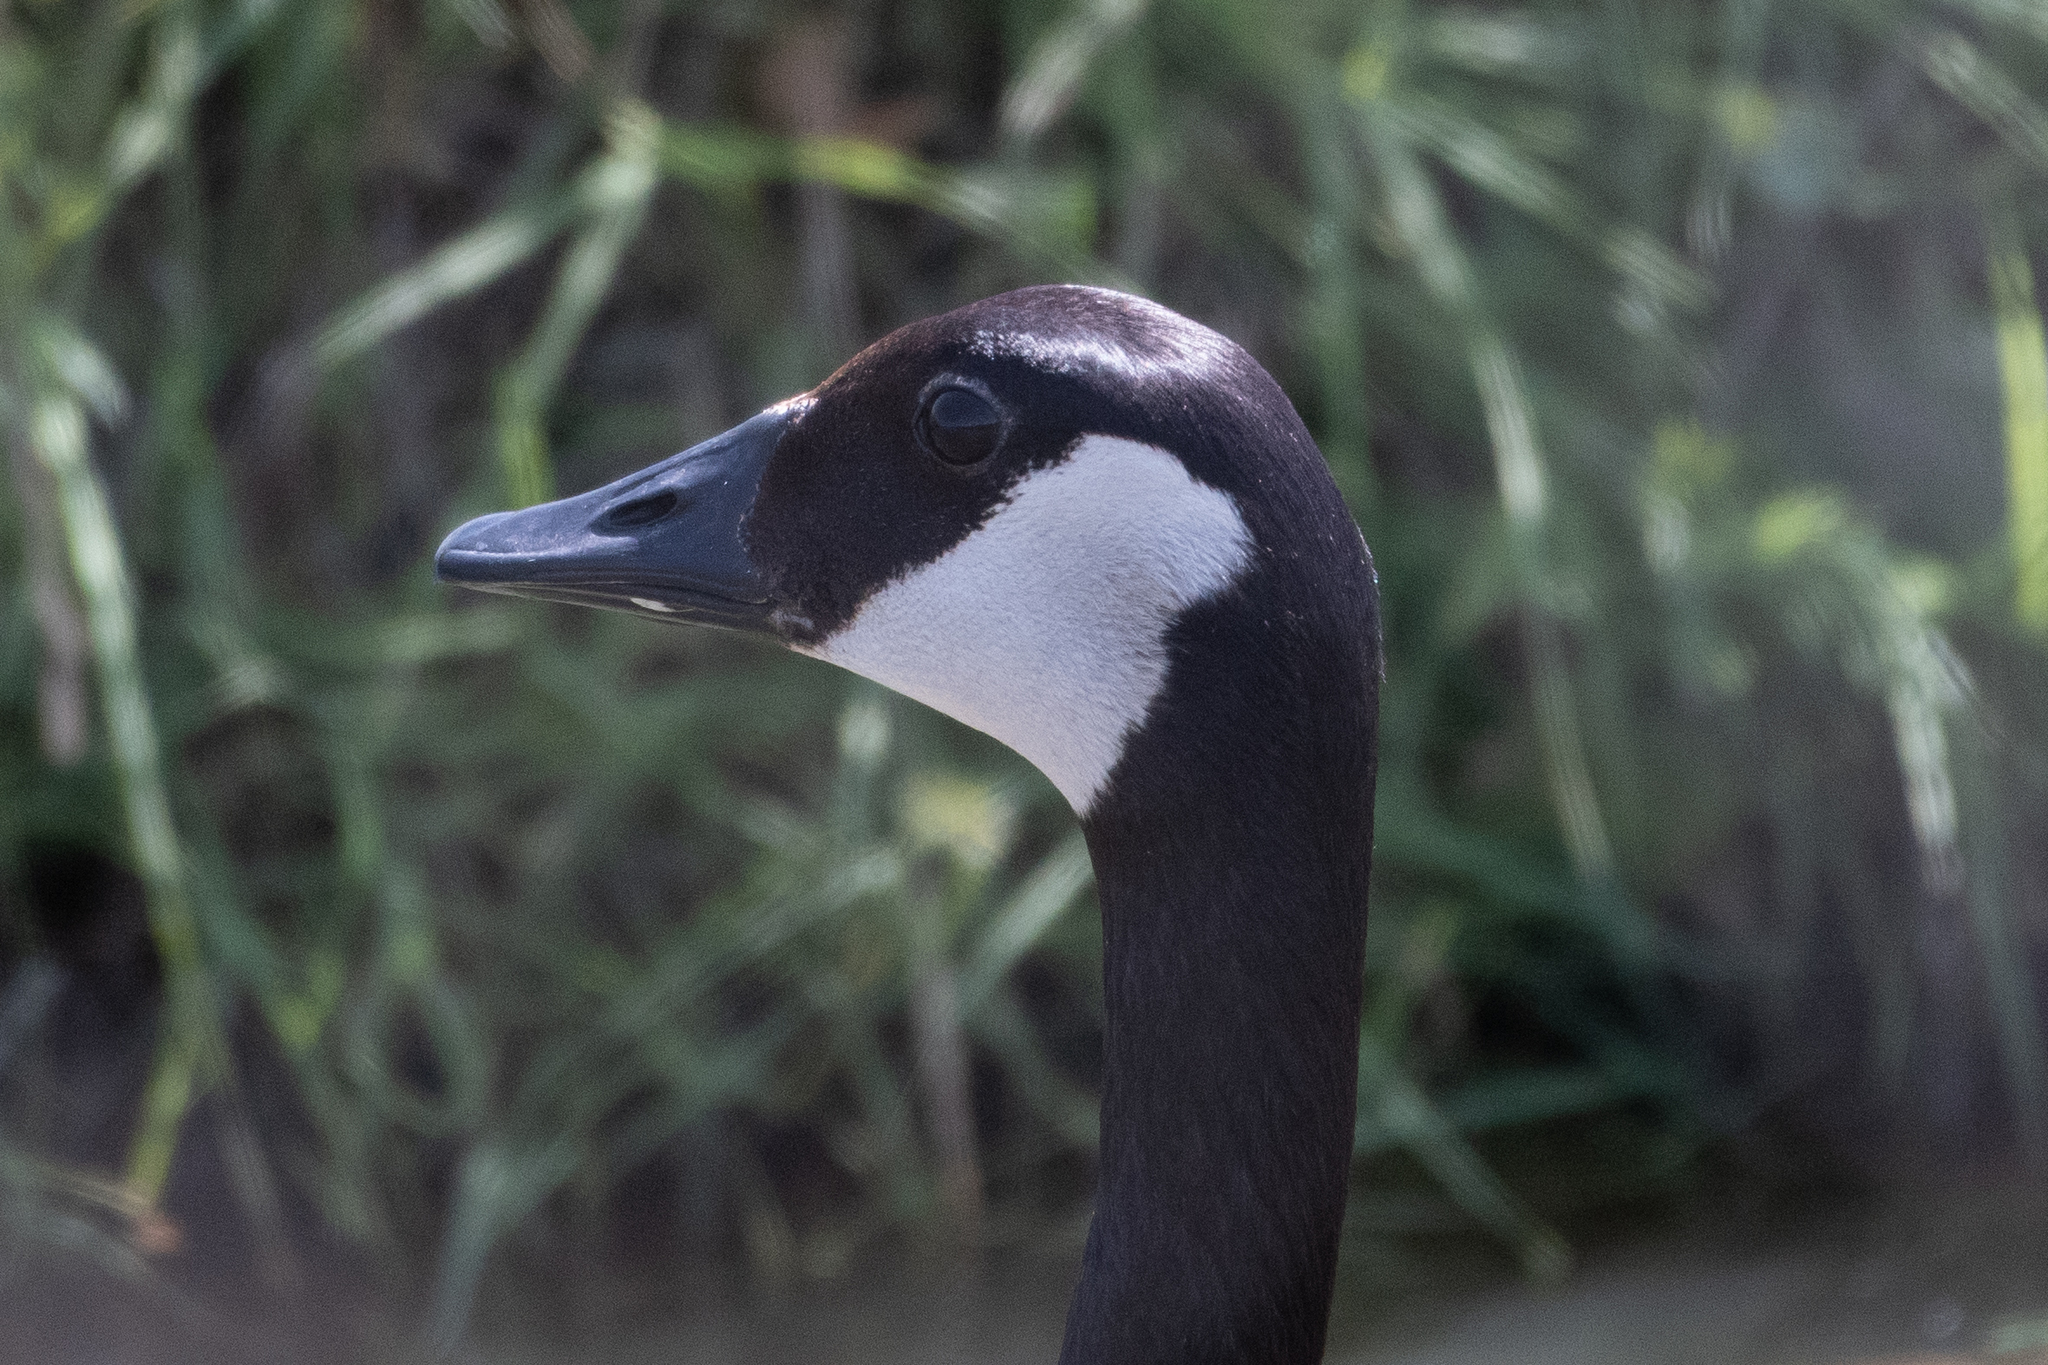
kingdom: Animalia
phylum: Chordata
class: Aves
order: Anseriformes
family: Anatidae
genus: Branta
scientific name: Branta canadensis
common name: Canada goose
